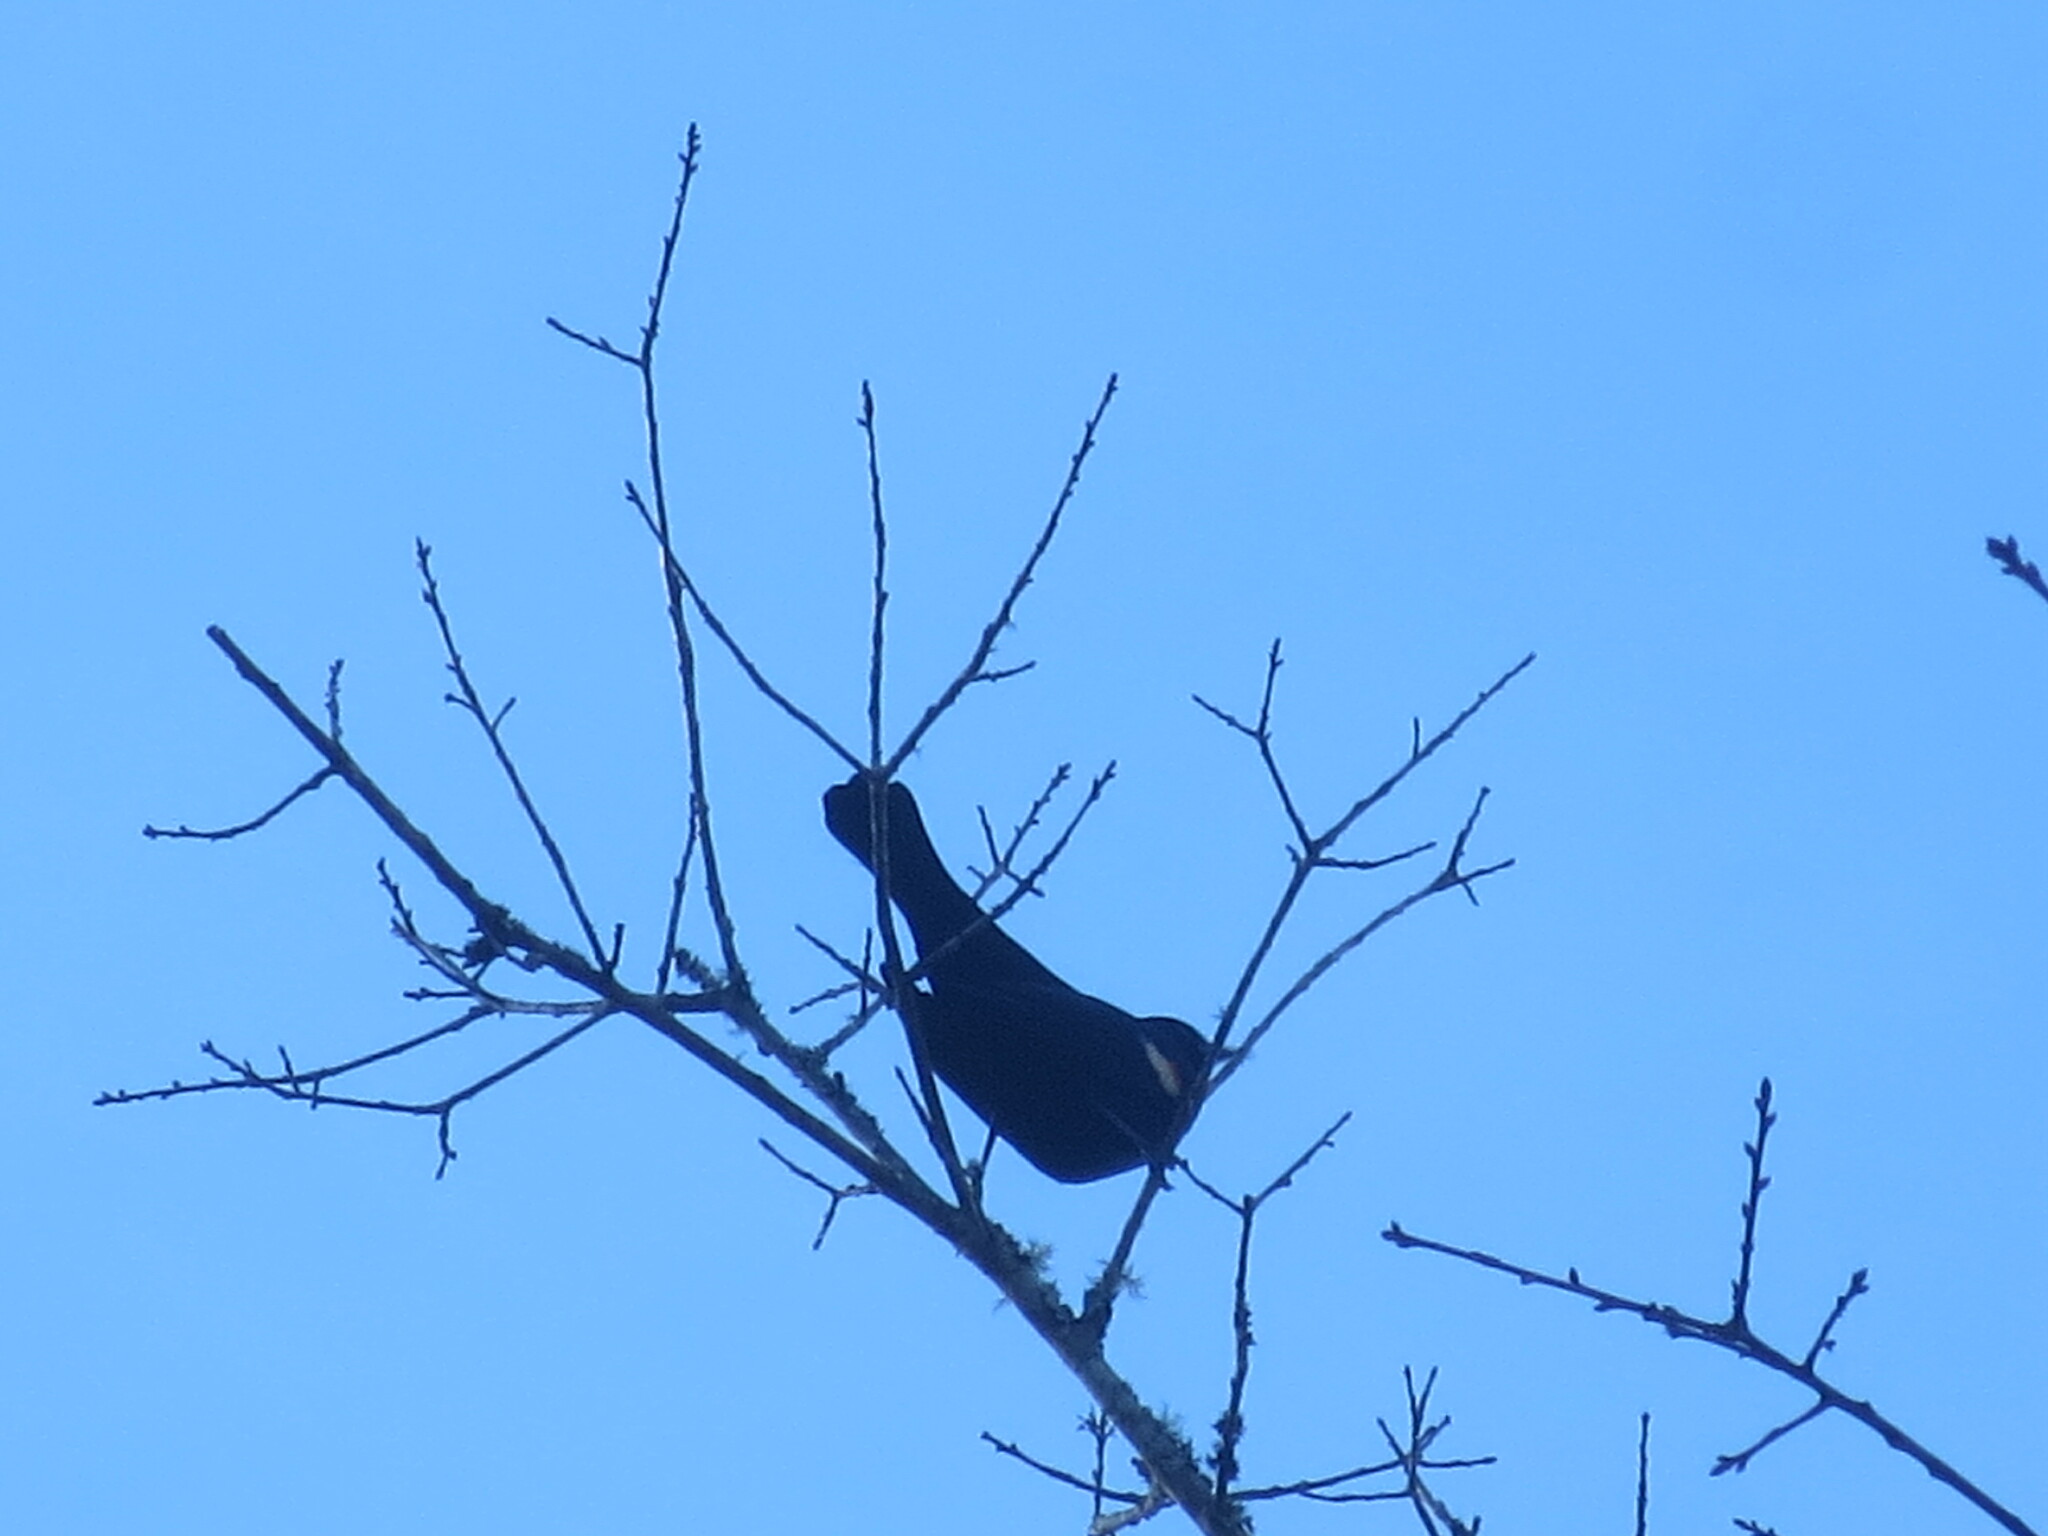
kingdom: Animalia
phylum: Chordata
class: Aves
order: Passeriformes
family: Icteridae
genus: Agelaius
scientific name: Agelaius phoeniceus
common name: Red-winged blackbird
